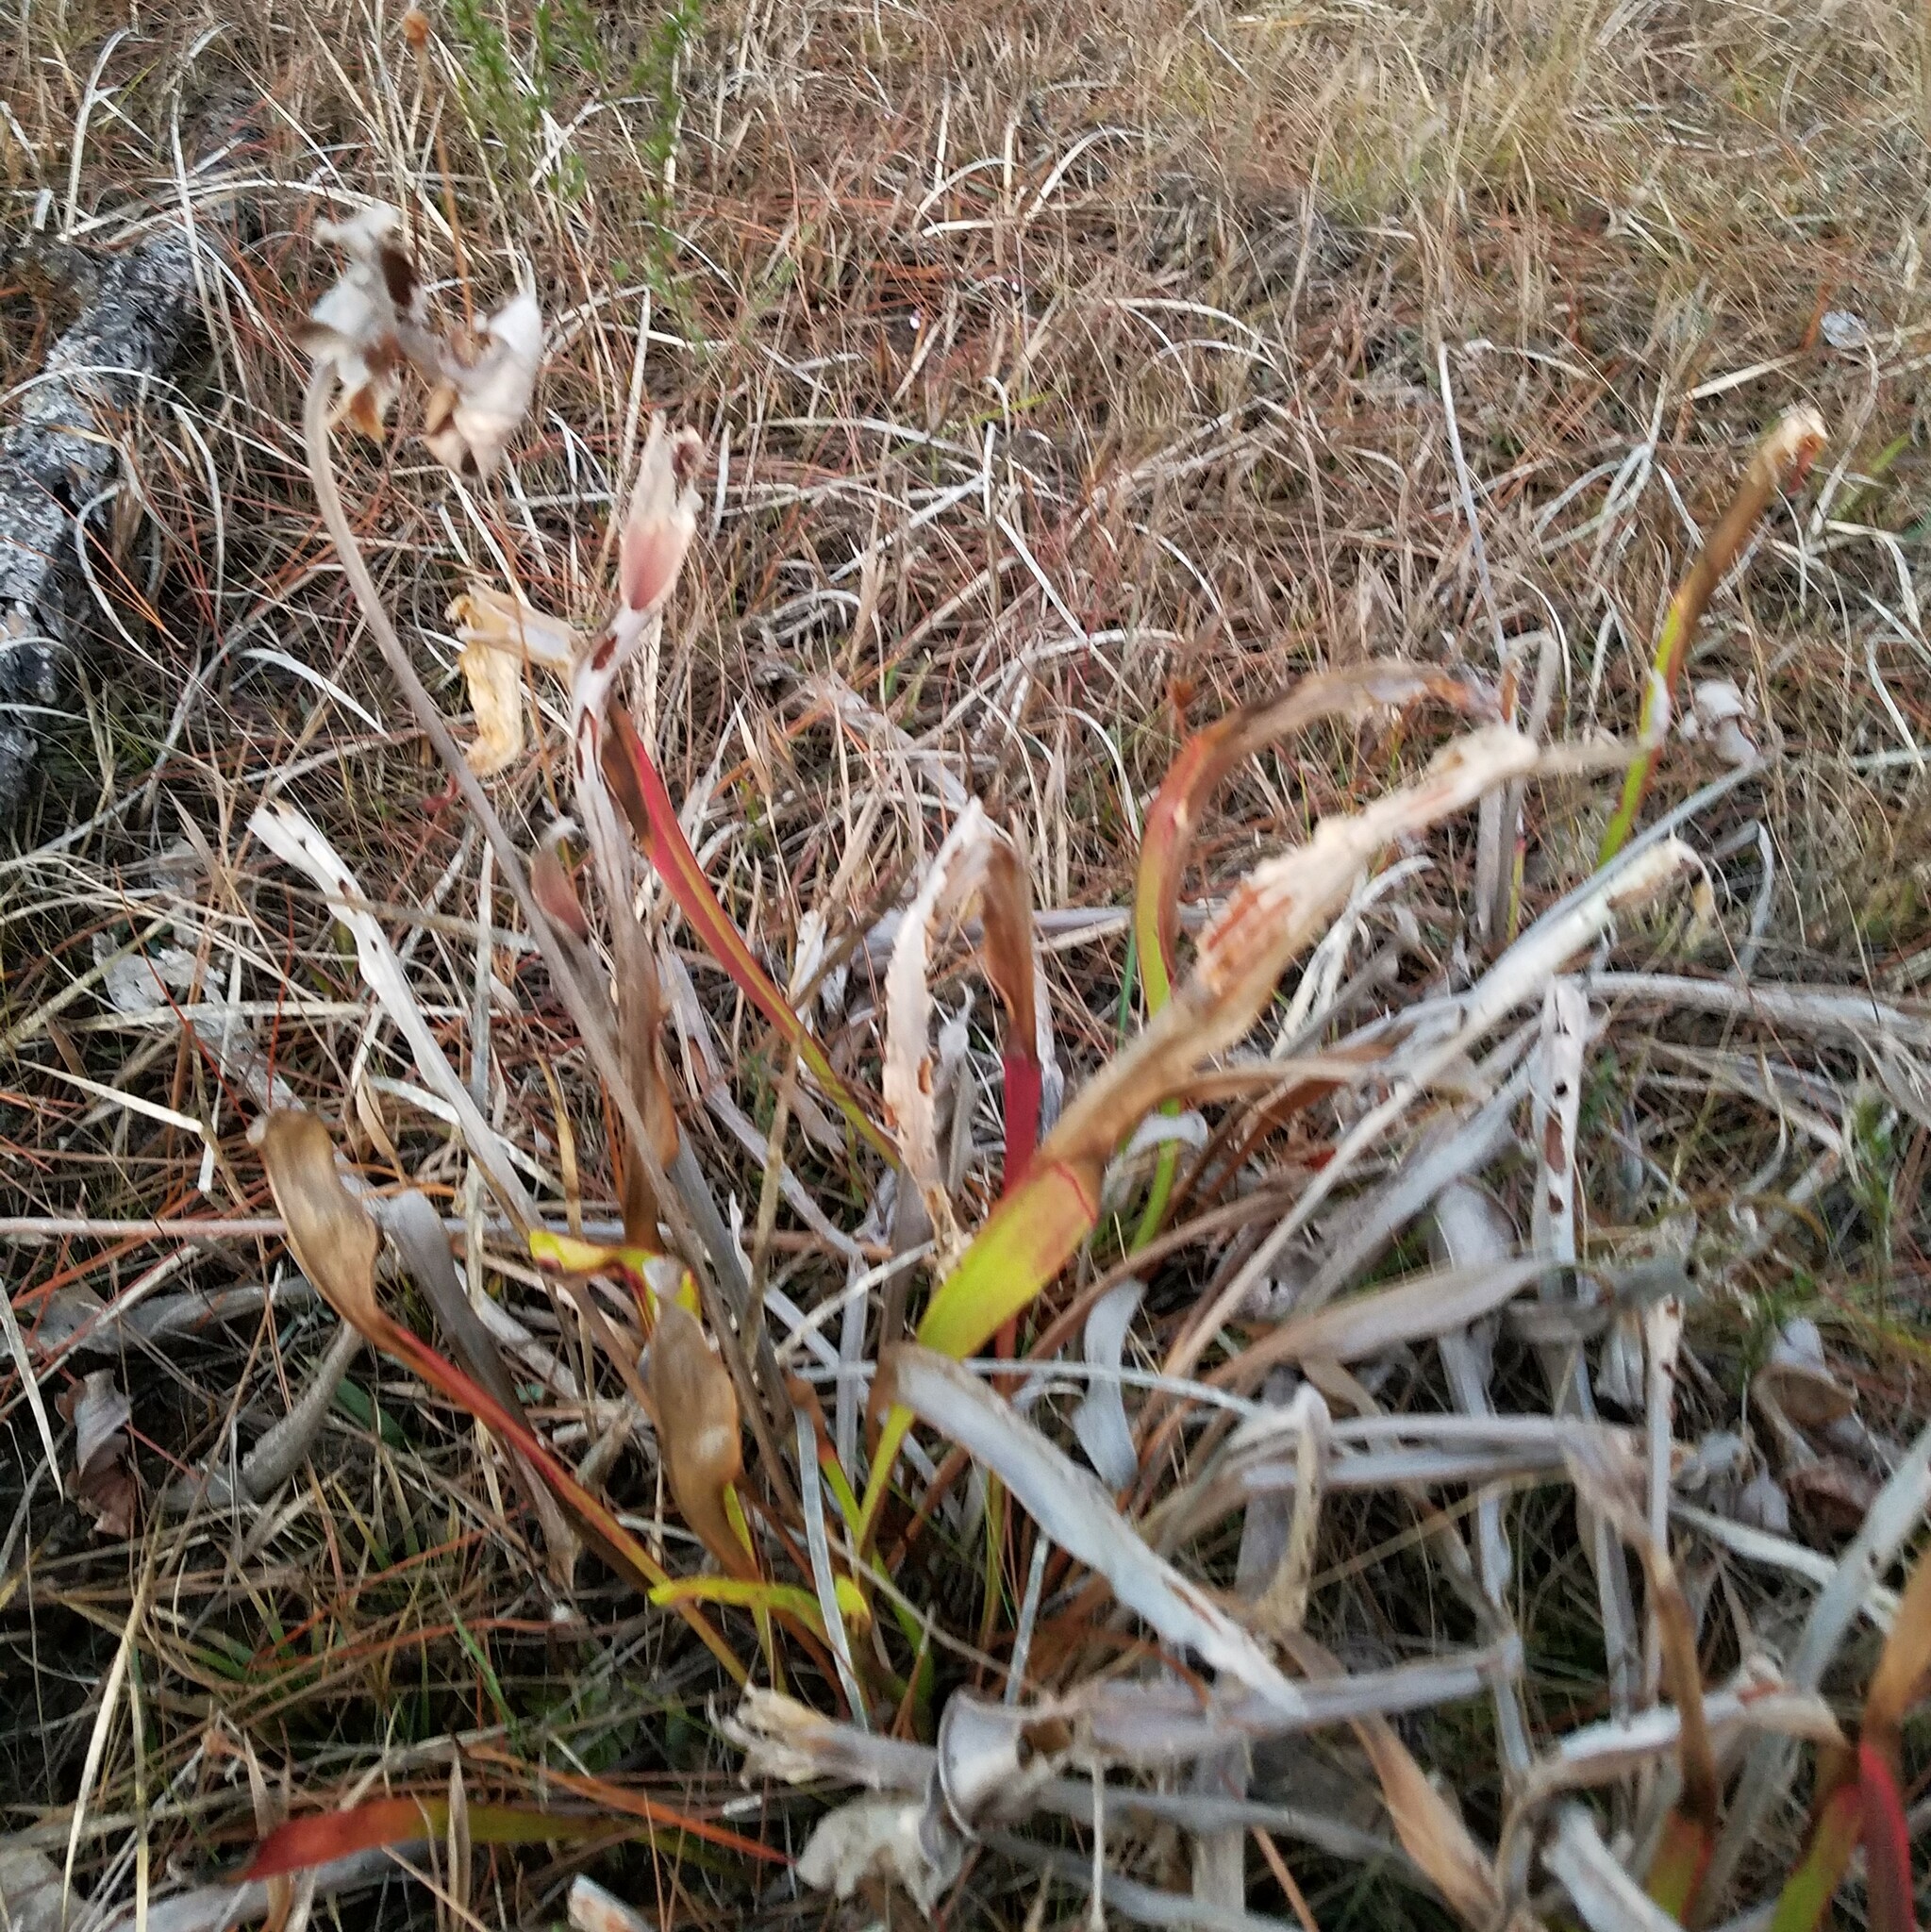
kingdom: Plantae
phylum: Tracheophyta
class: Magnoliopsida
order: Ericales
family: Sarraceniaceae
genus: Sarracenia
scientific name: Sarracenia flava
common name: Trumpets
